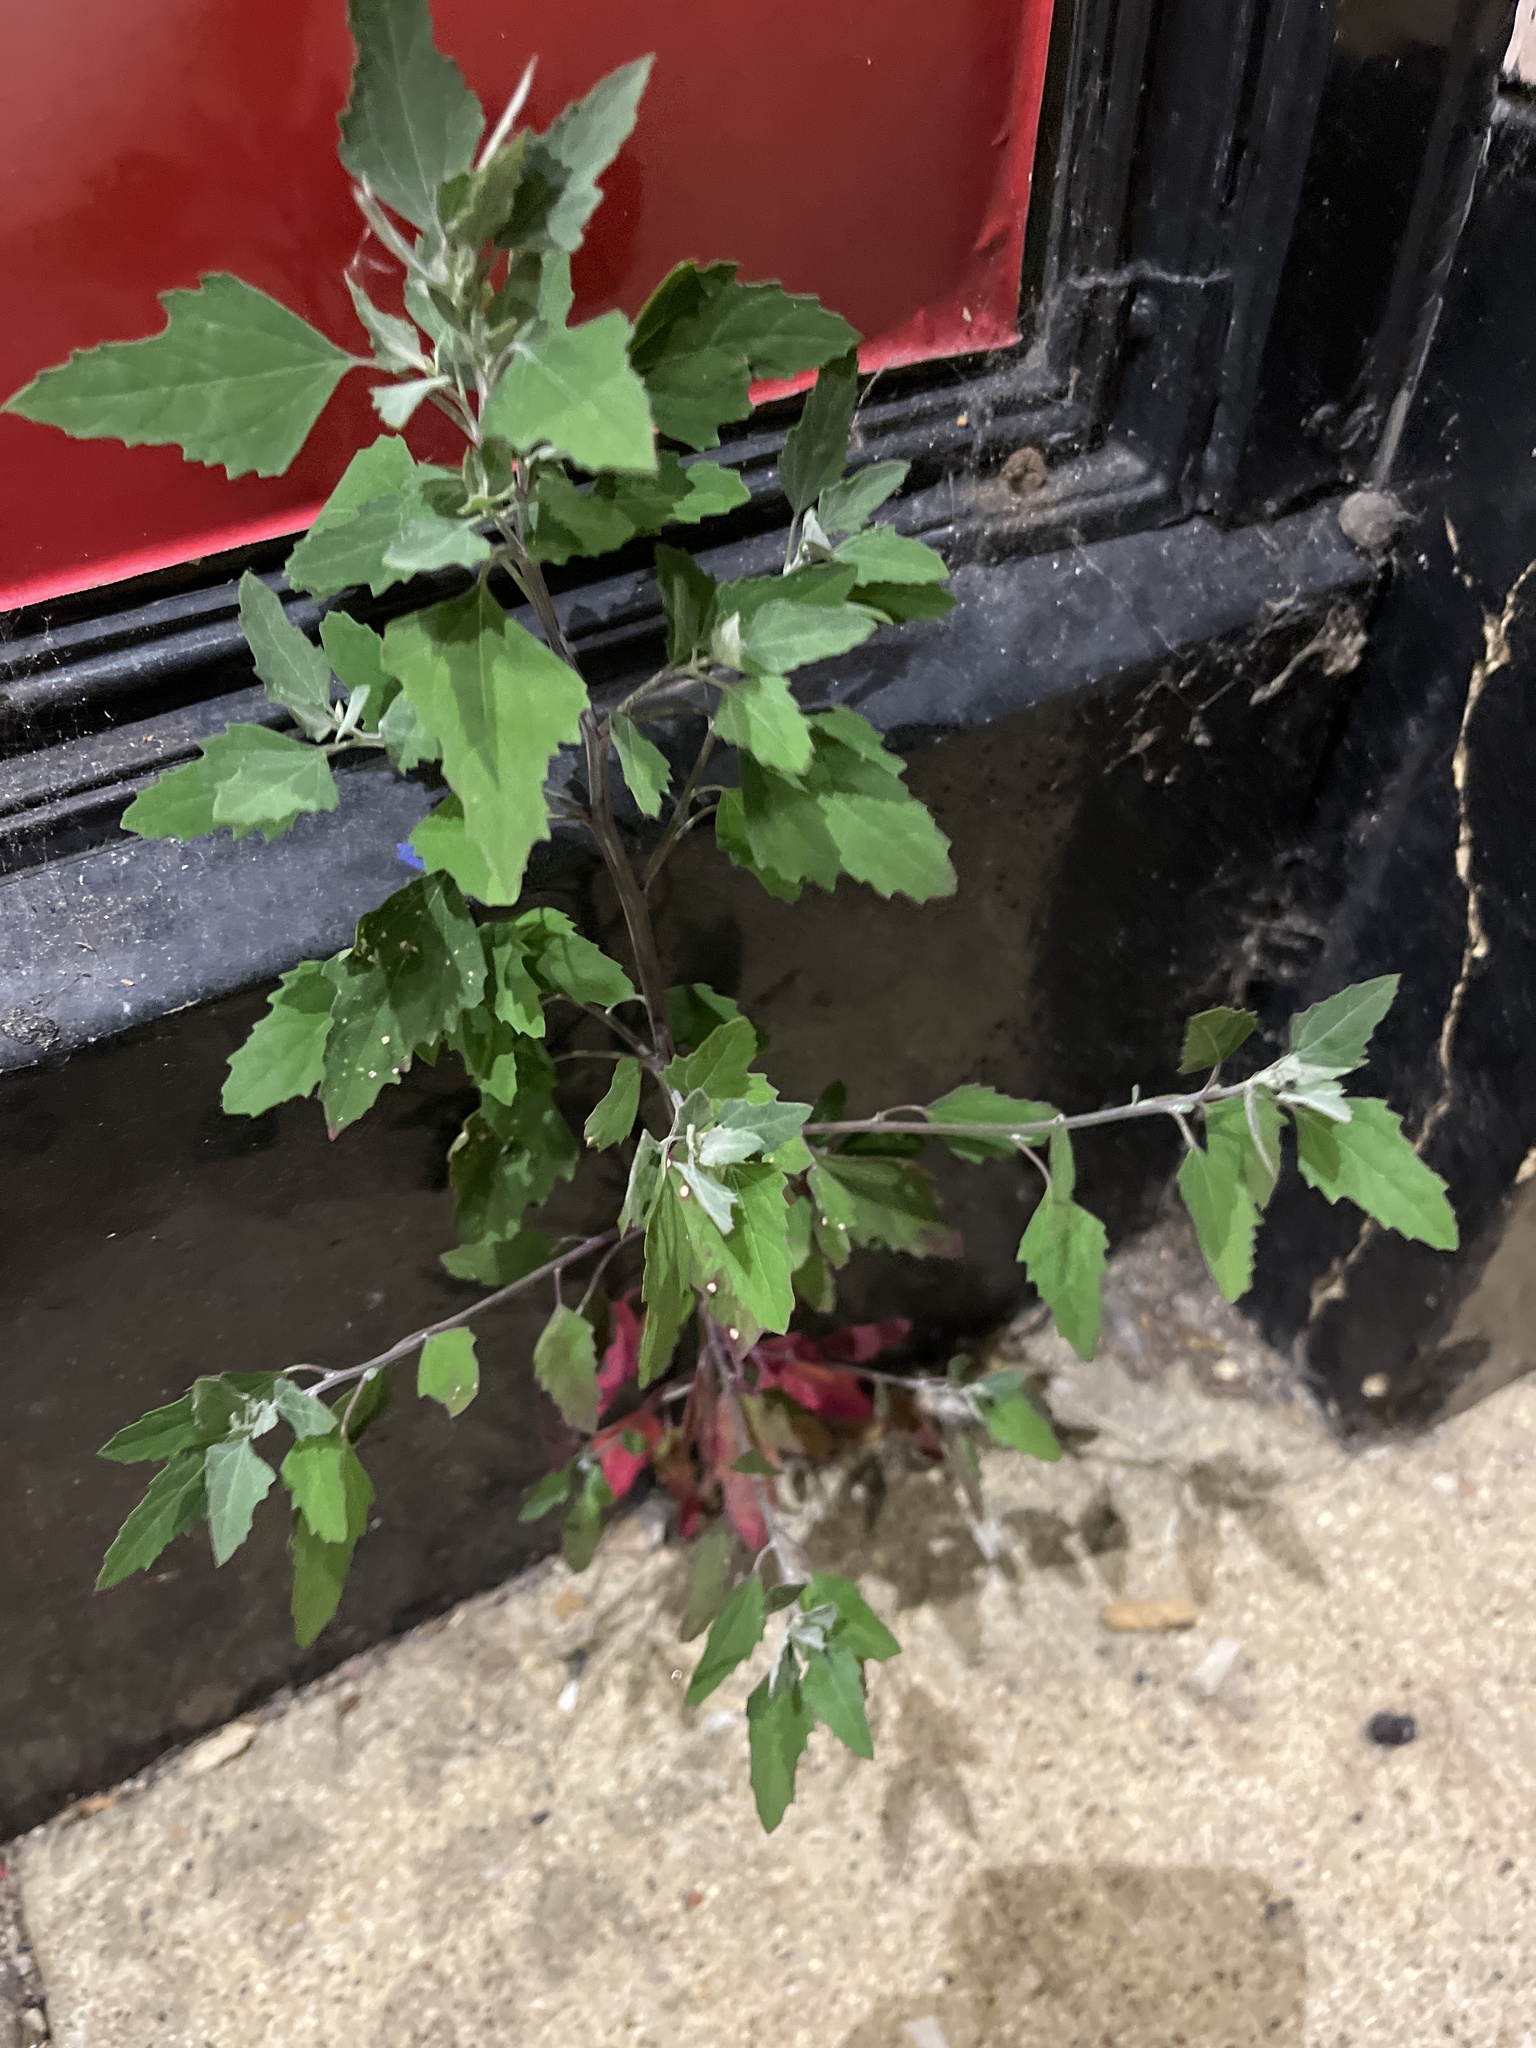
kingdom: Plantae
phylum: Tracheophyta
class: Magnoliopsida
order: Caryophyllales
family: Amaranthaceae
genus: Chenopodium
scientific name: Chenopodium album
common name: Fat-hen
